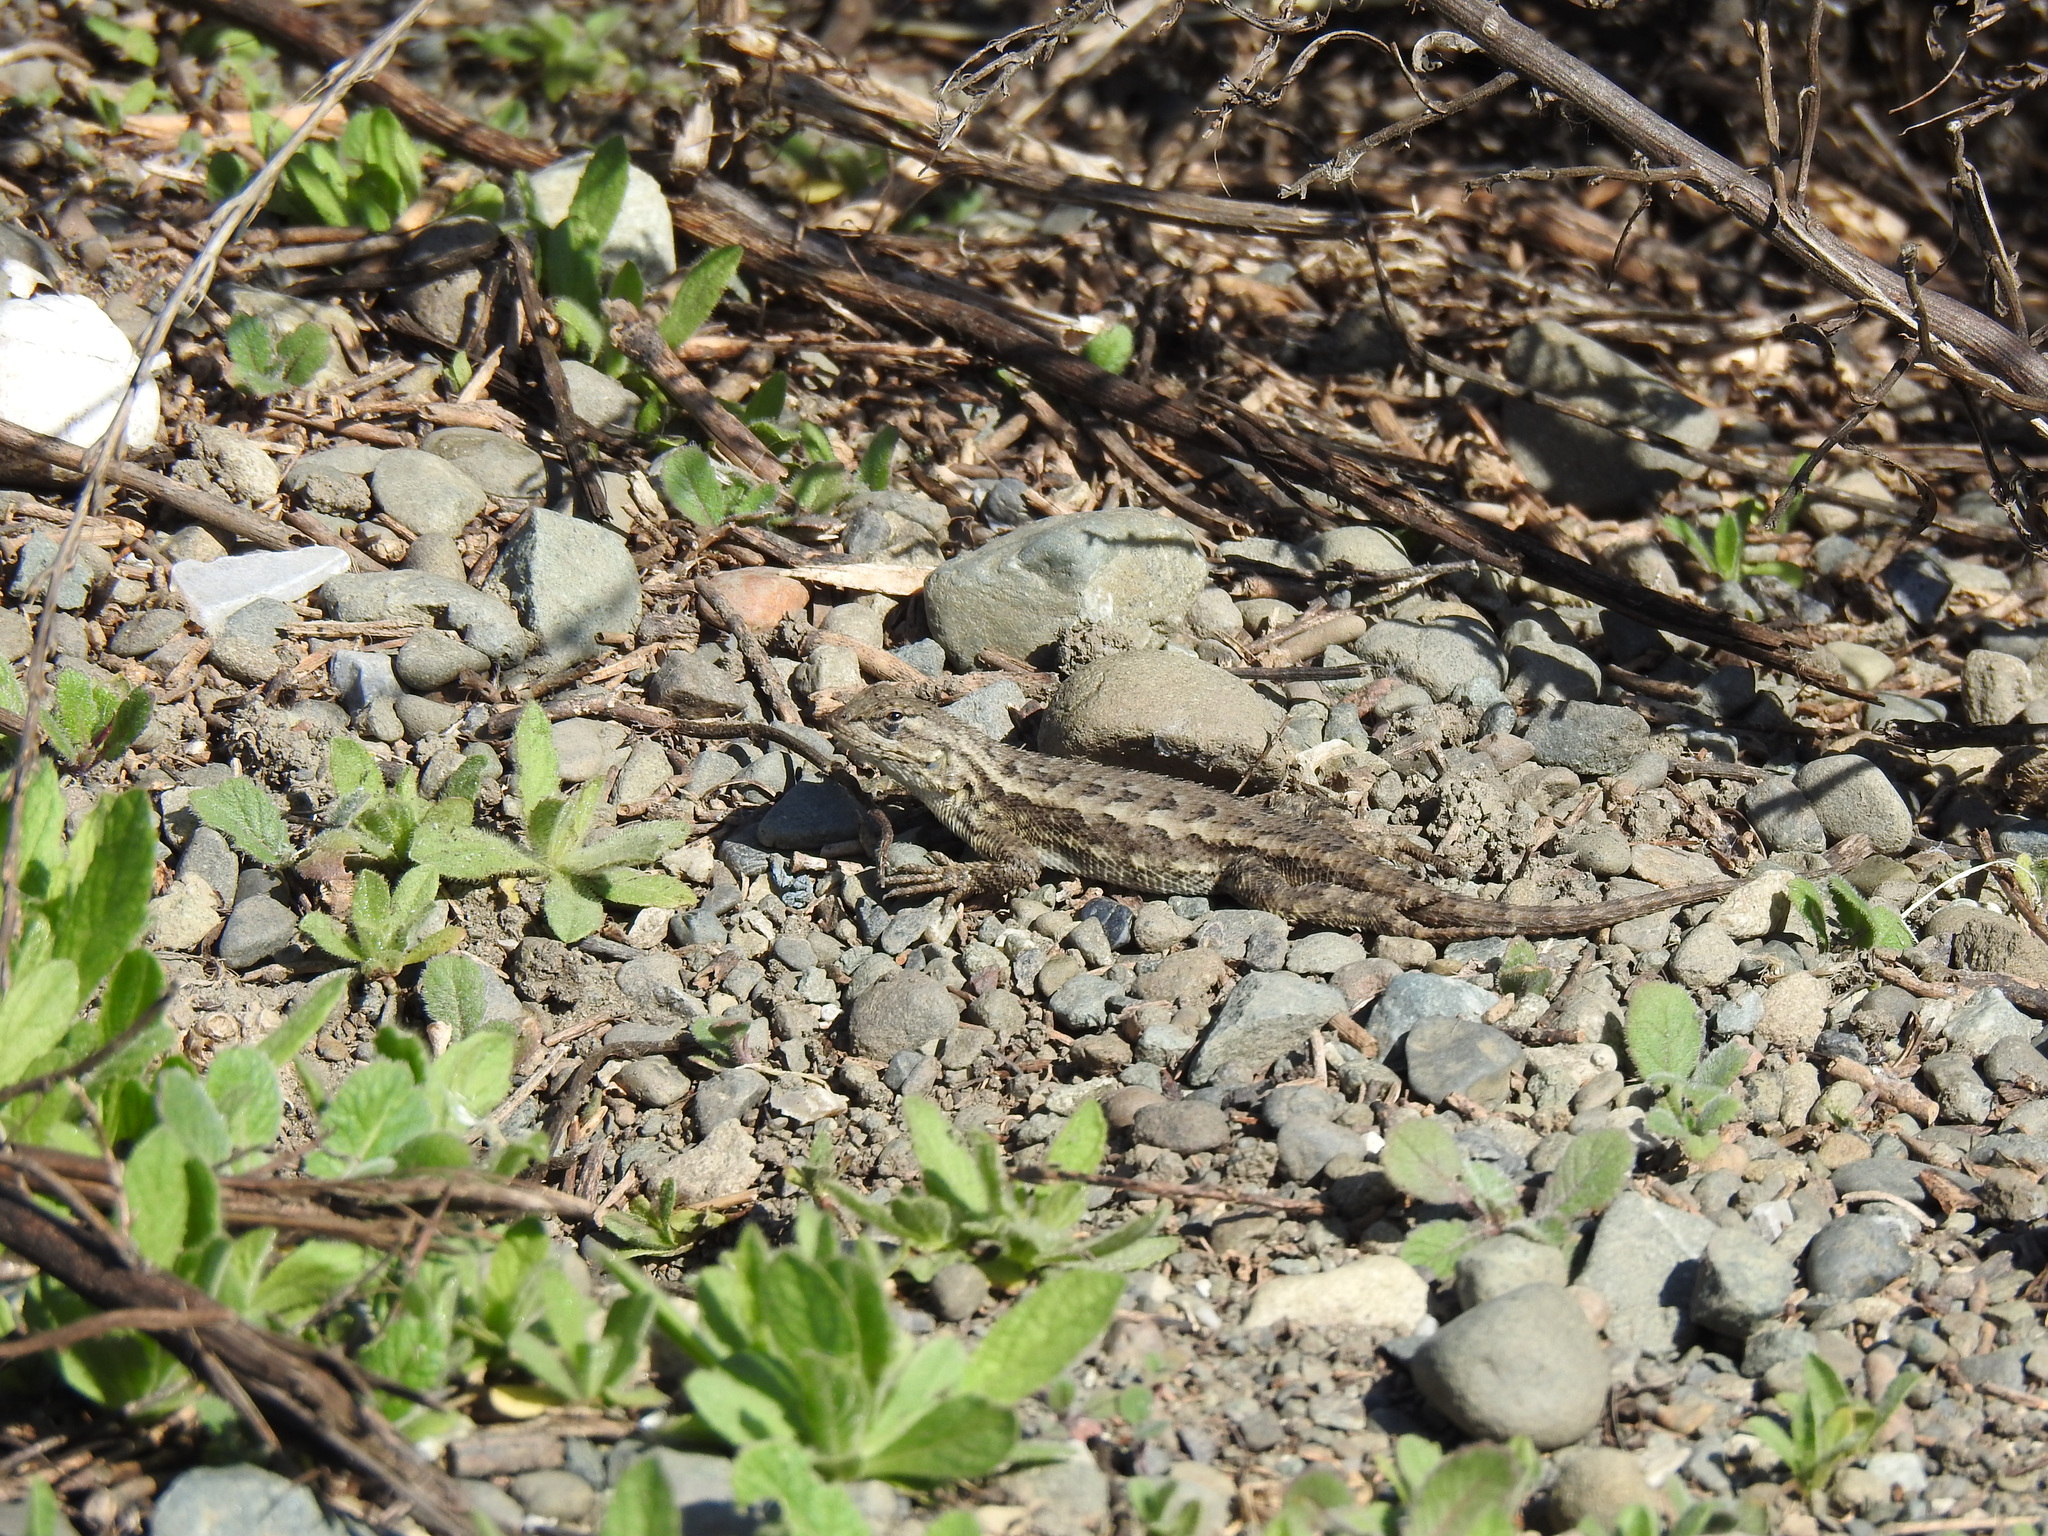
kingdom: Animalia
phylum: Chordata
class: Squamata
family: Phrynosomatidae
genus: Sceloporus
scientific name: Sceloporus occidentalis
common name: Western fence lizard
